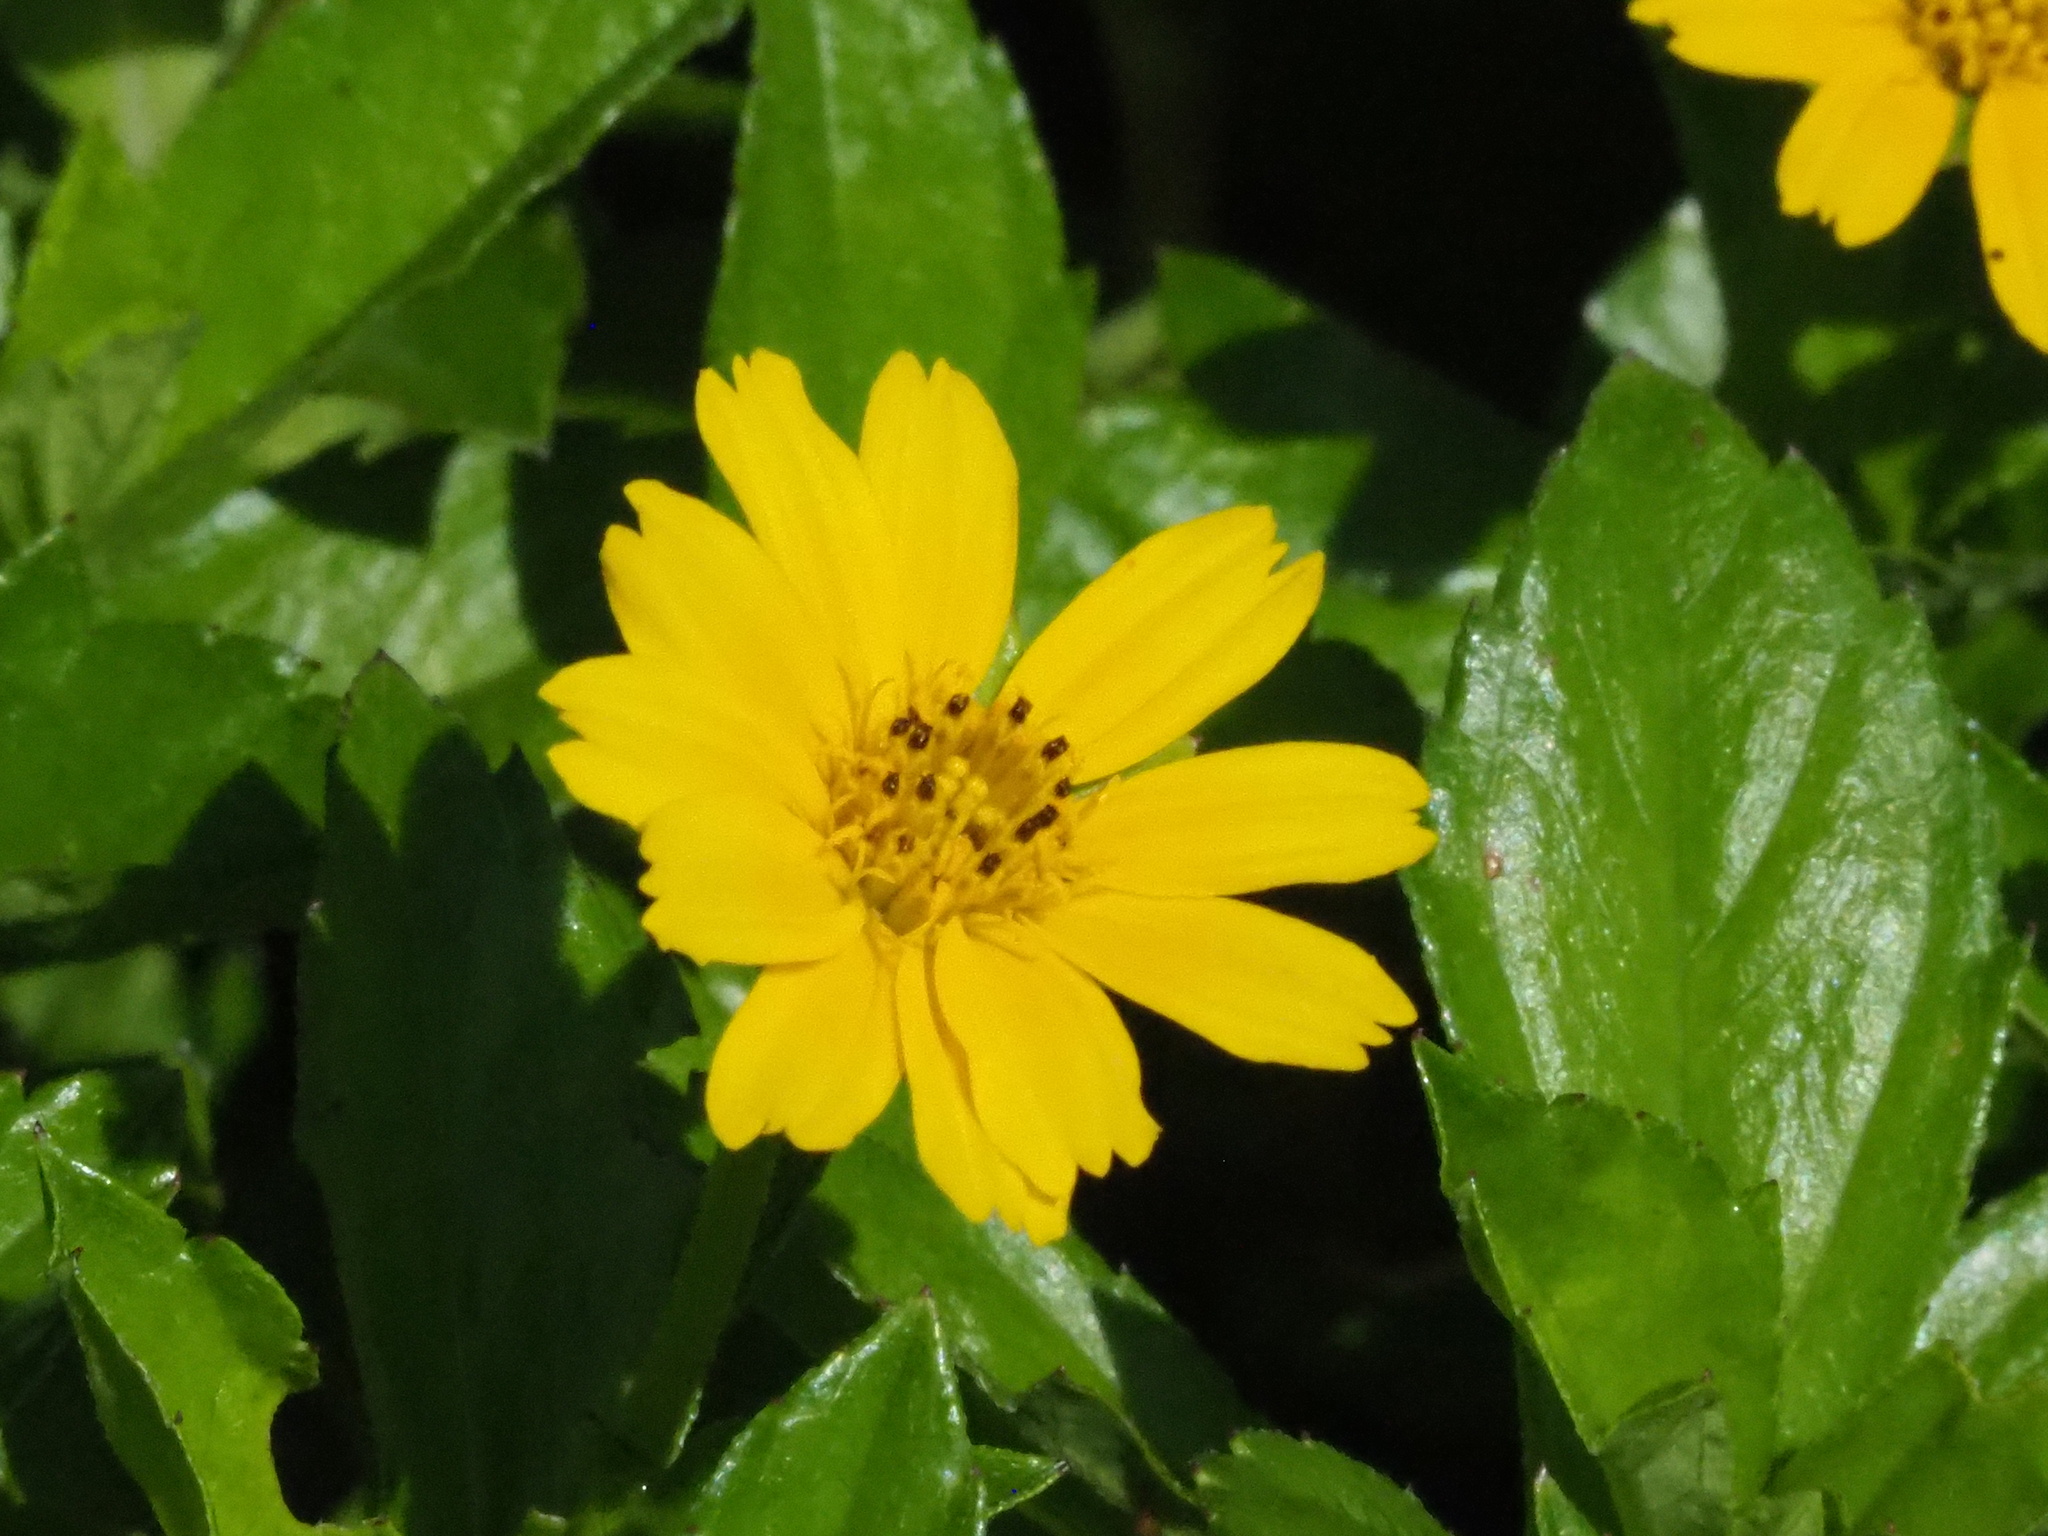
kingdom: Plantae
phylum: Tracheophyta
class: Magnoliopsida
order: Asterales
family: Asteraceae
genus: Sphagneticola
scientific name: Sphagneticola trilobata
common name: Bay biscayne creeping-oxeye
